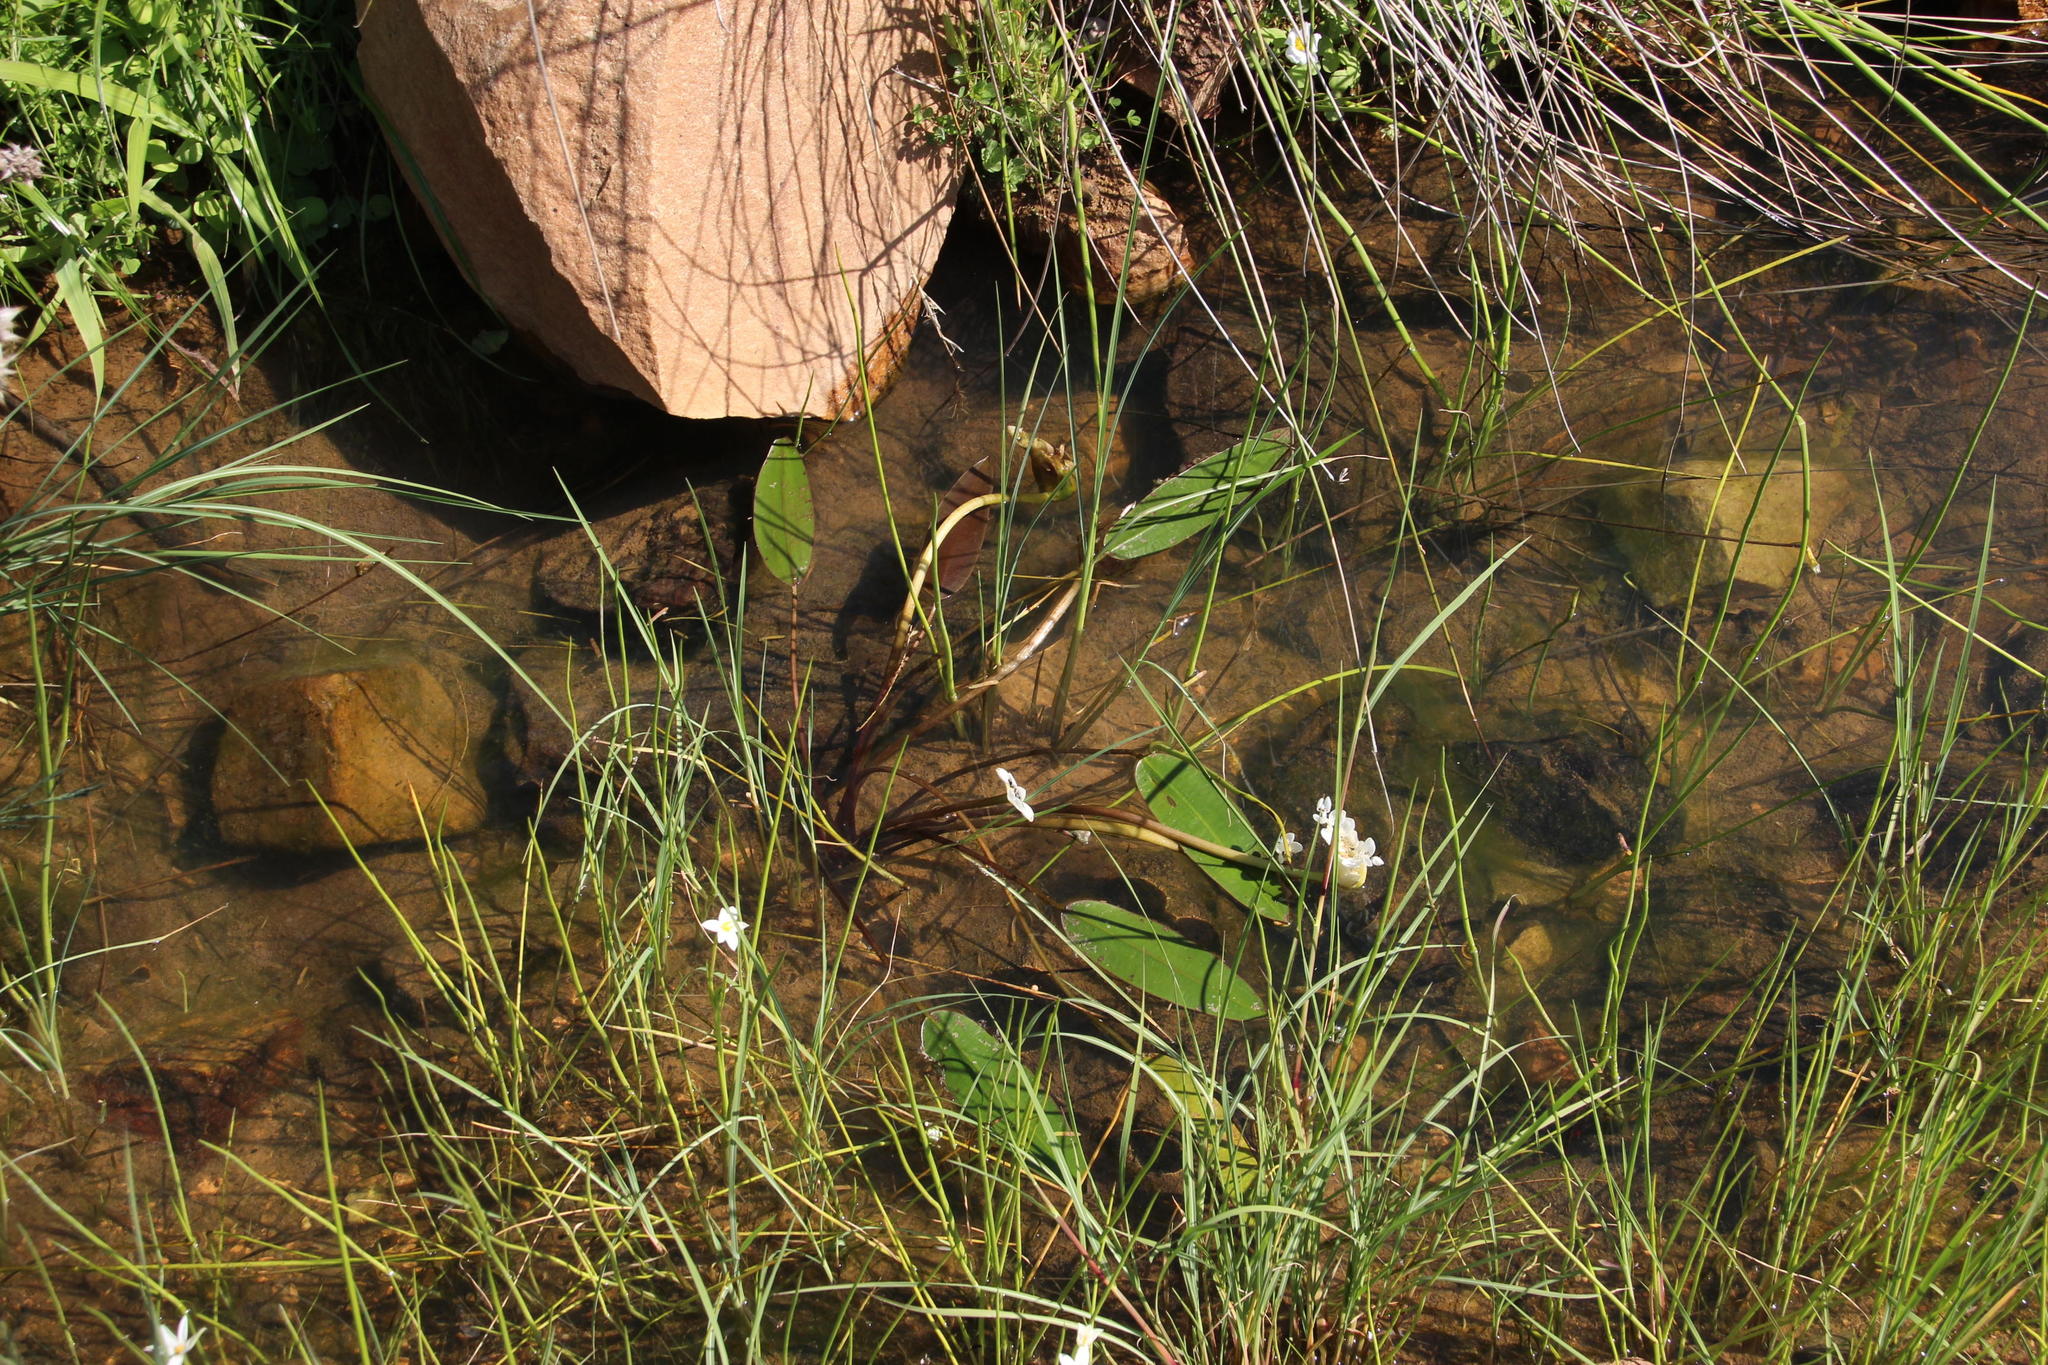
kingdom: Plantae
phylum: Tracheophyta
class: Liliopsida
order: Alismatales
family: Aponogetonaceae
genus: Aponogeton
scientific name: Aponogeton distachyos
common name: Cape-pondweed
